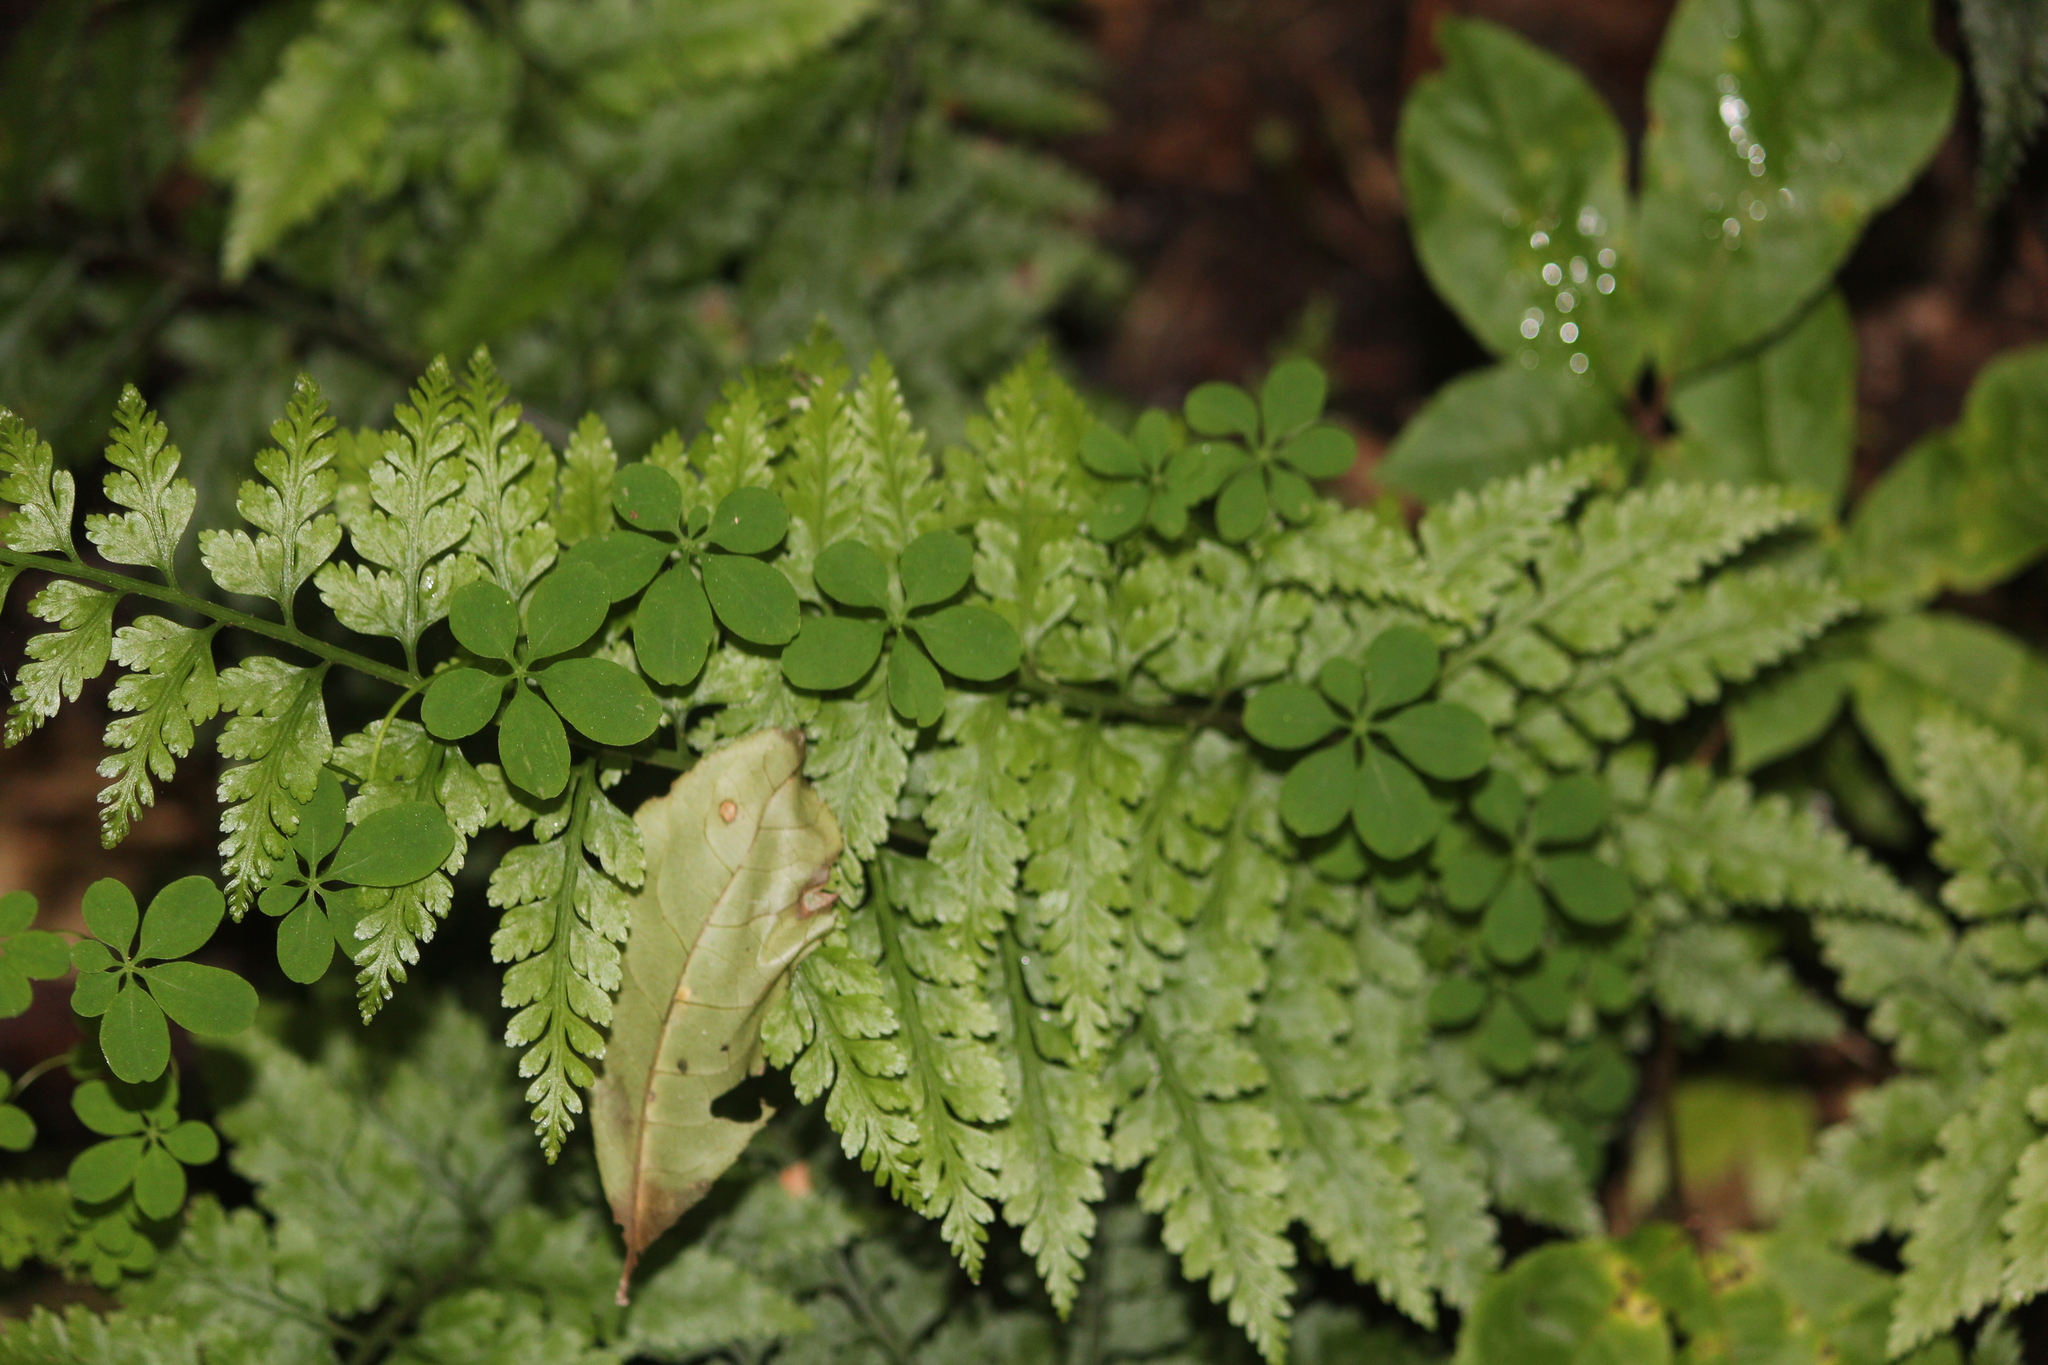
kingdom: Plantae
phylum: Tracheophyta
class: Magnoliopsida
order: Brassicales
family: Tropaeolaceae
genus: Tropaeolum
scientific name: Tropaeolum speciosum
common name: Flame nasturtium
